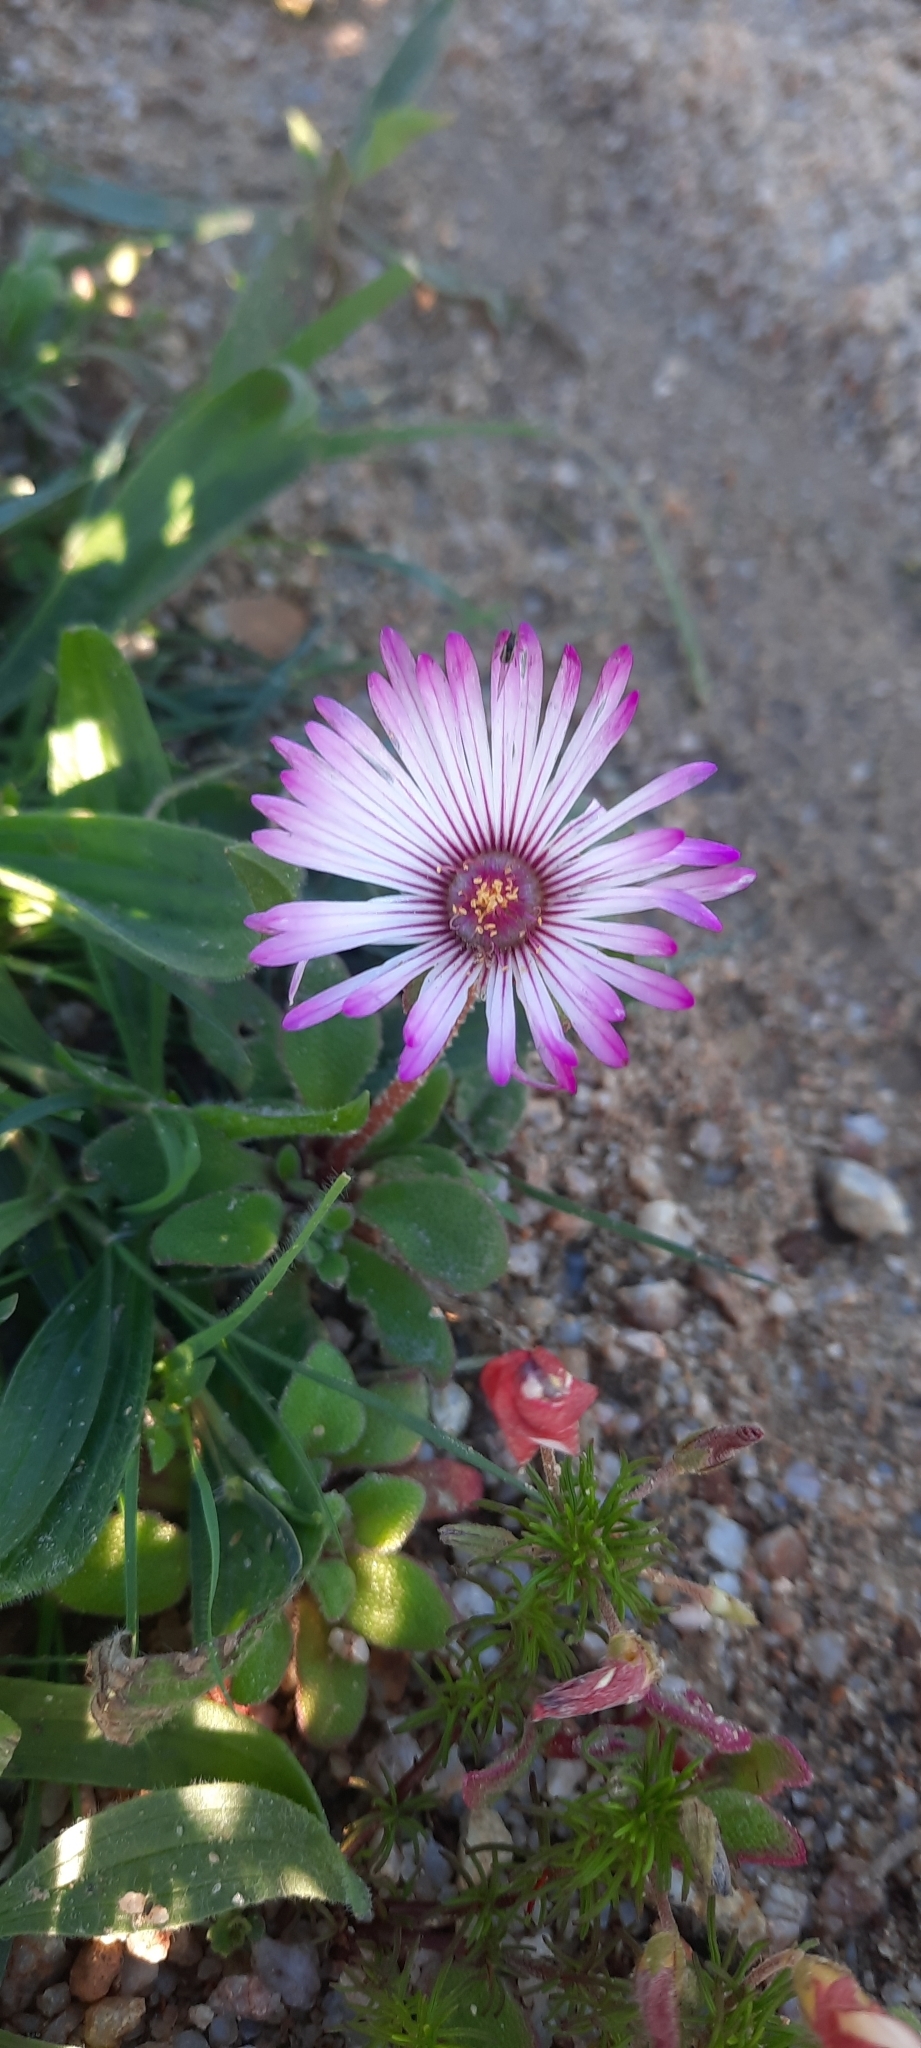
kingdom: Plantae
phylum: Tracheophyta
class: Magnoliopsida
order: Caryophyllales
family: Aizoaceae
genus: Cleretum
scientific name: Cleretum bellidiforme
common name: Livingstone daisy
